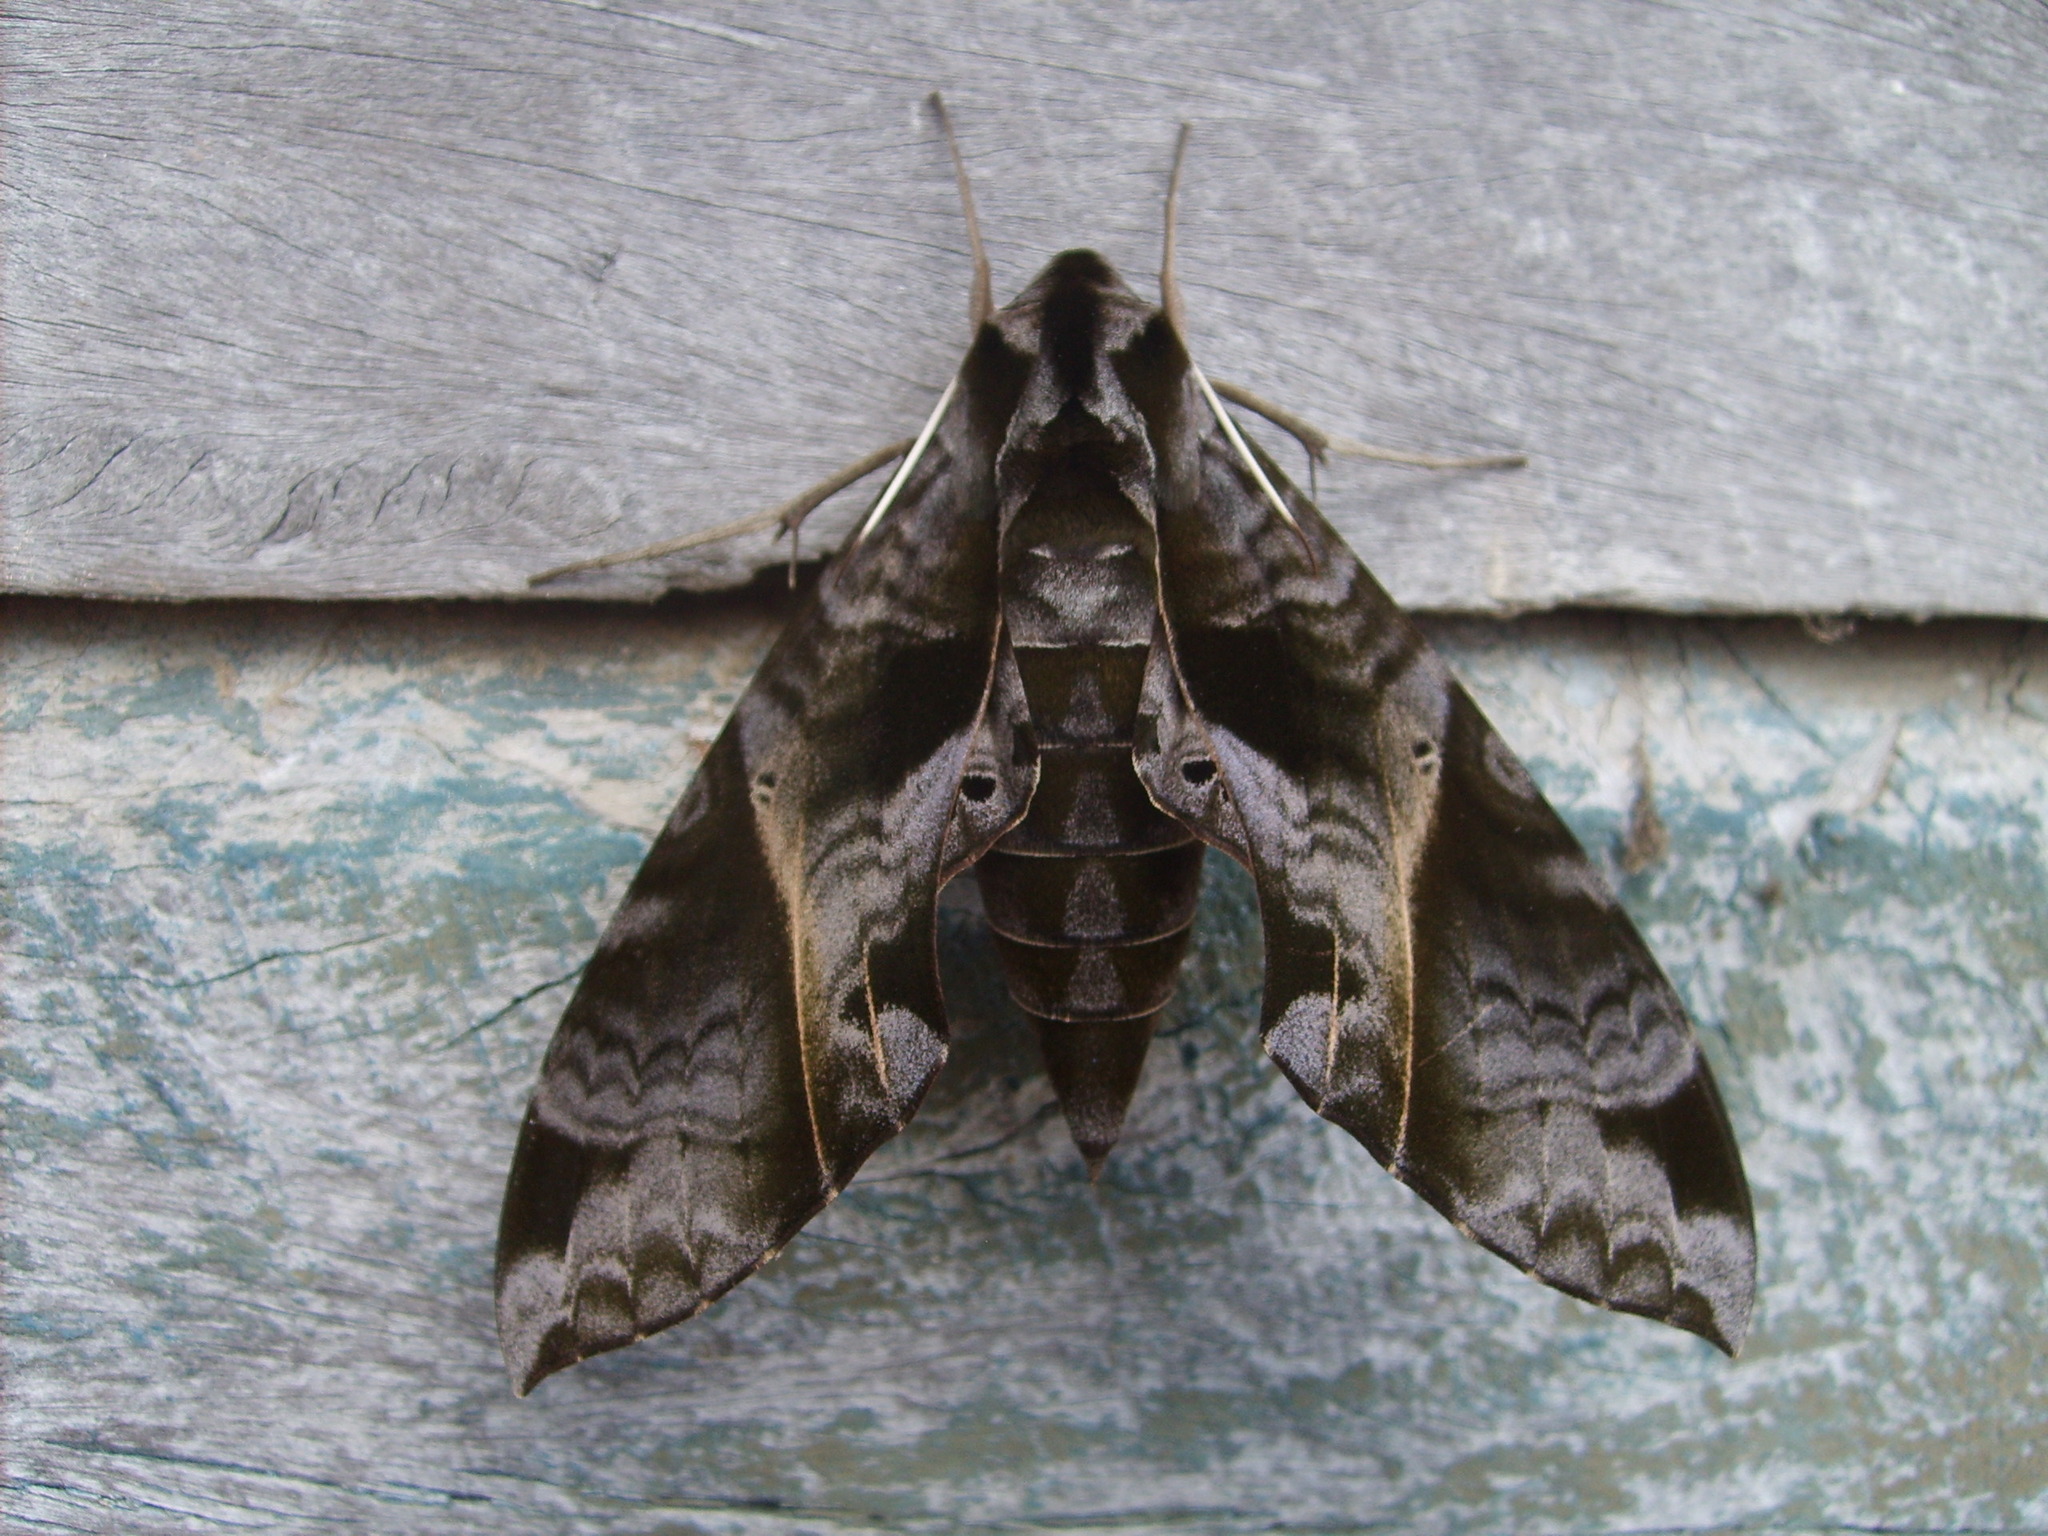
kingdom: Animalia
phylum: Arthropoda
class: Insecta
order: Lepidoptera
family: Sphingidae
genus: Eumorpha
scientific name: Eumorpha triangulum
